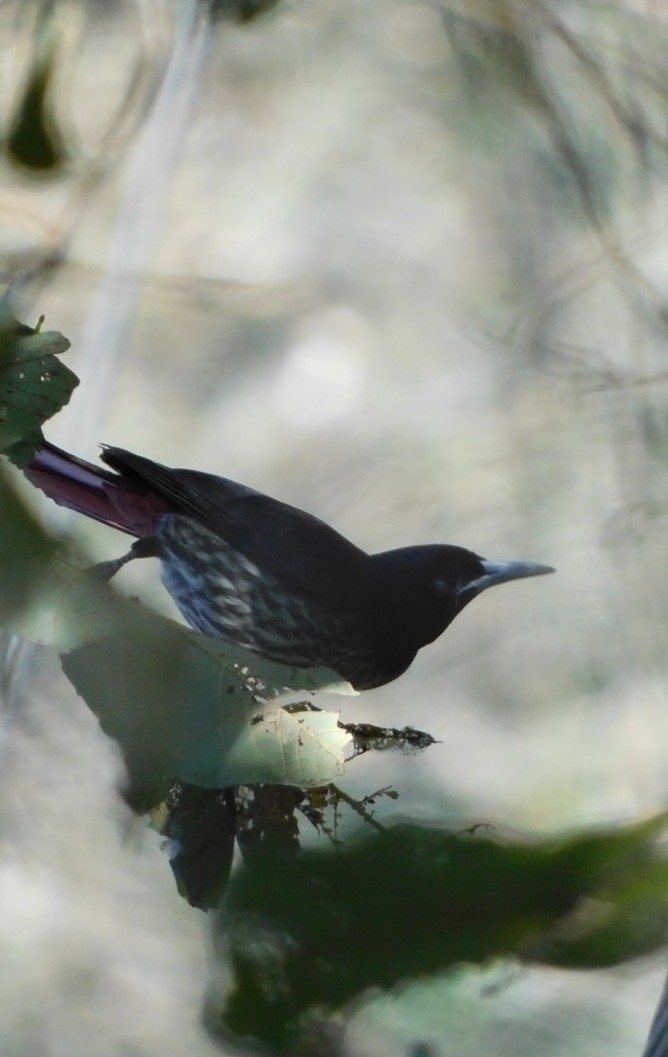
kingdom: Animalia
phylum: Chordata
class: Aves
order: Passeriformes
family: Oriolidae
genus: Oriolus
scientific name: Oriolus traillii
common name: Maroon oriole
